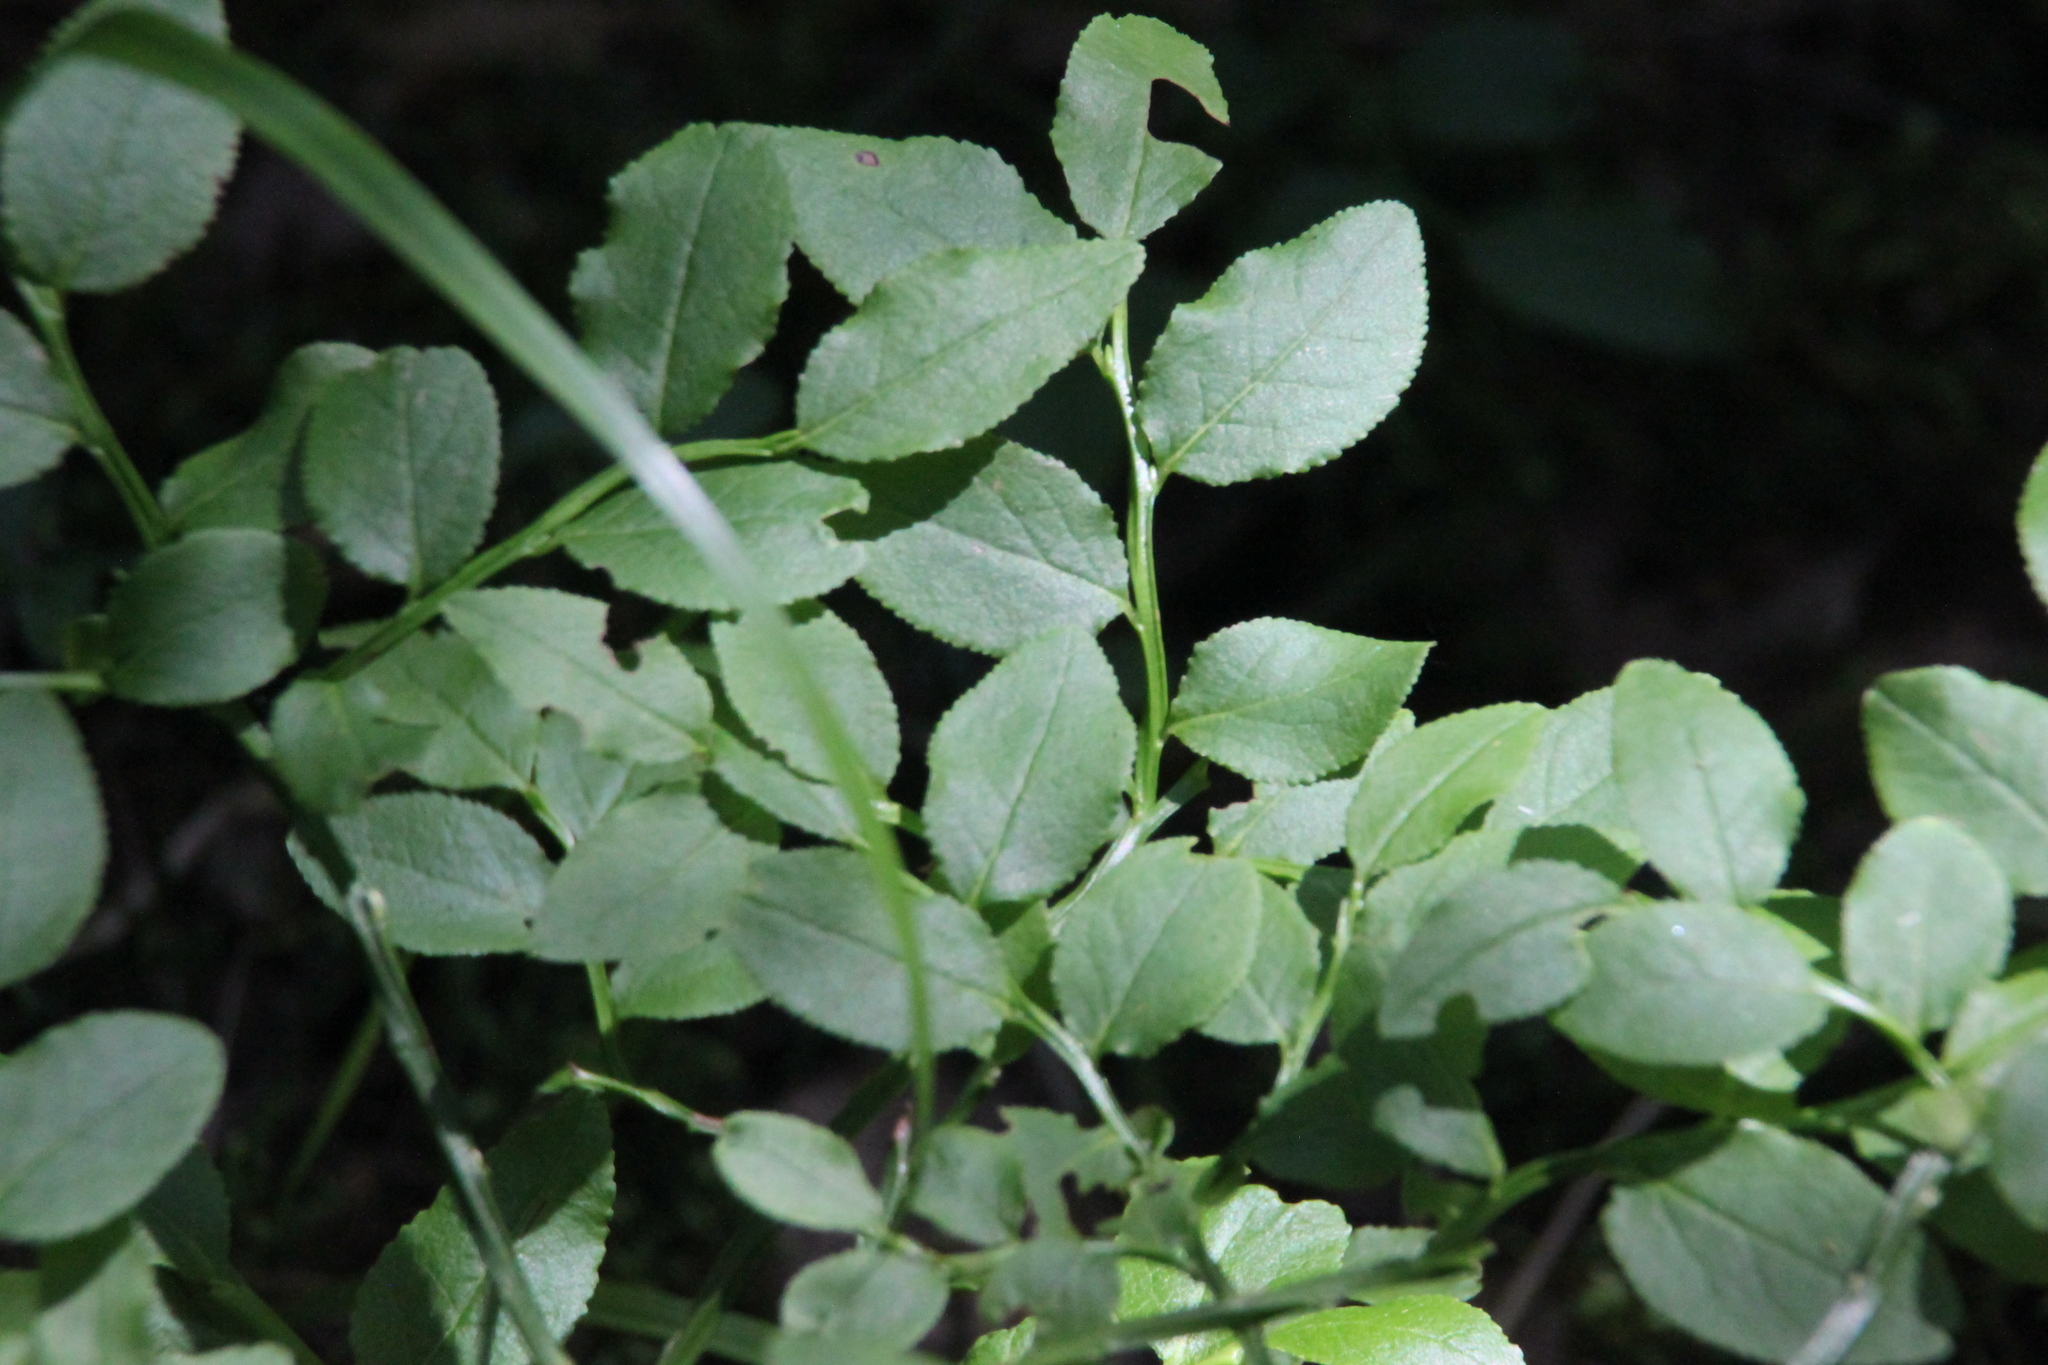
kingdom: Plantae
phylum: Tracheophyta
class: Magnoliopsida
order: Ericales
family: Ericaceae
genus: Vaccinium
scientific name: Vaccinium myrtillus
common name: Bilberry
